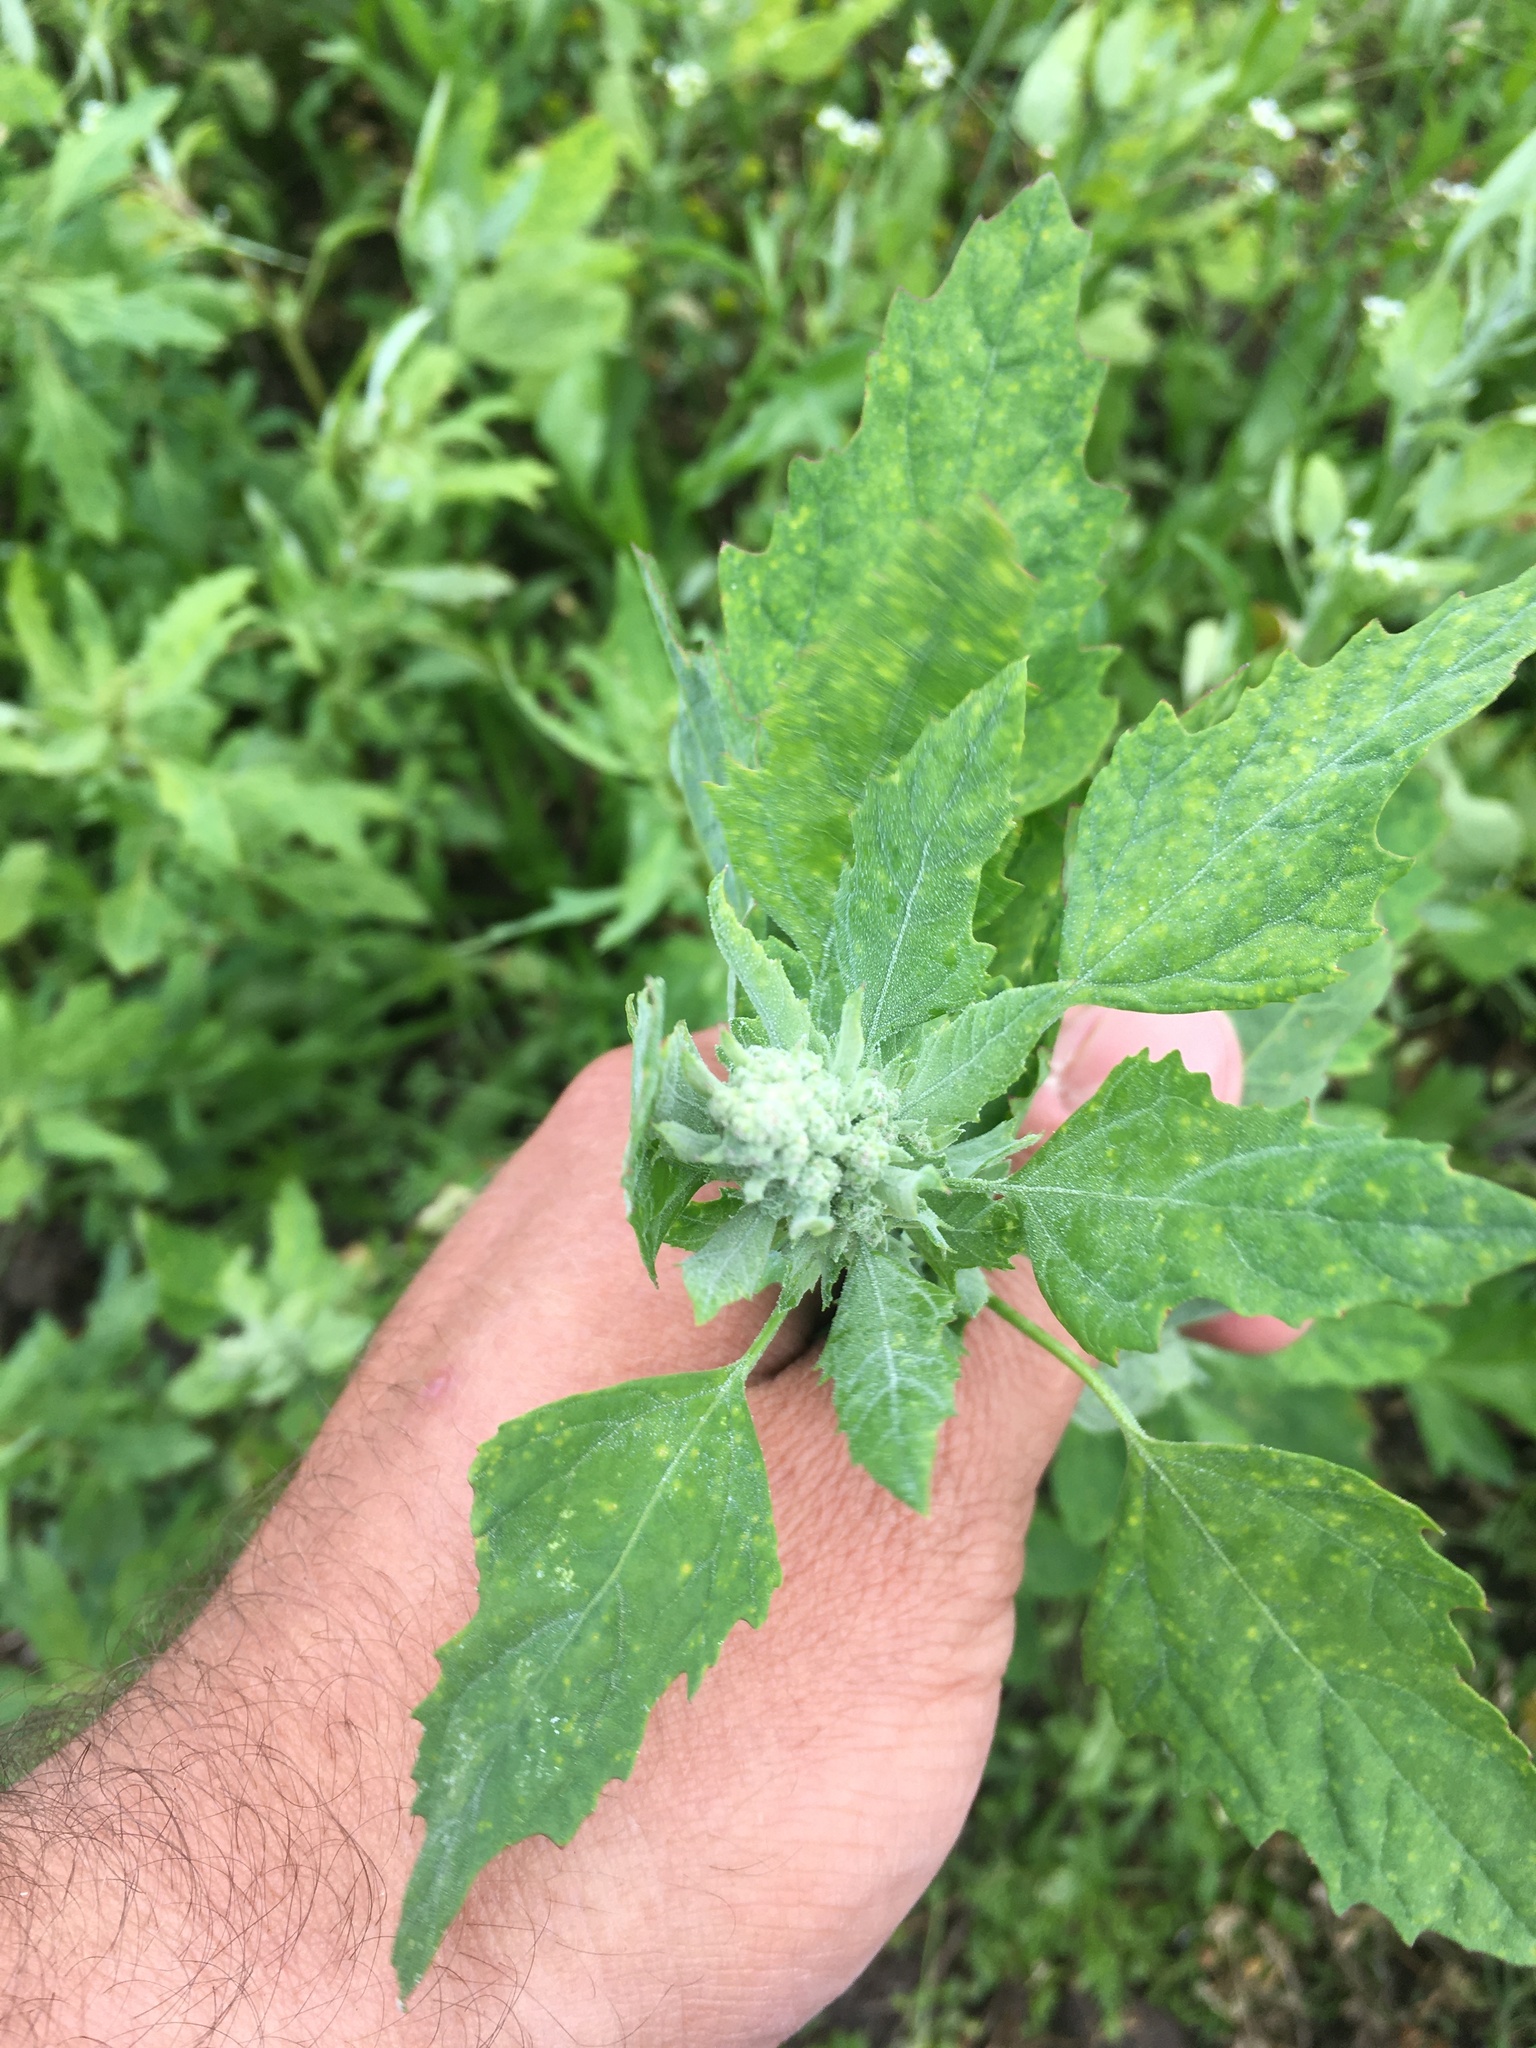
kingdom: Plantae
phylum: Tracheophyta
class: Magnoliopsida
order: Caryophyllales
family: Amaranthaceae
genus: Chenopodium
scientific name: Chenopodium album
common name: Fat-hen
